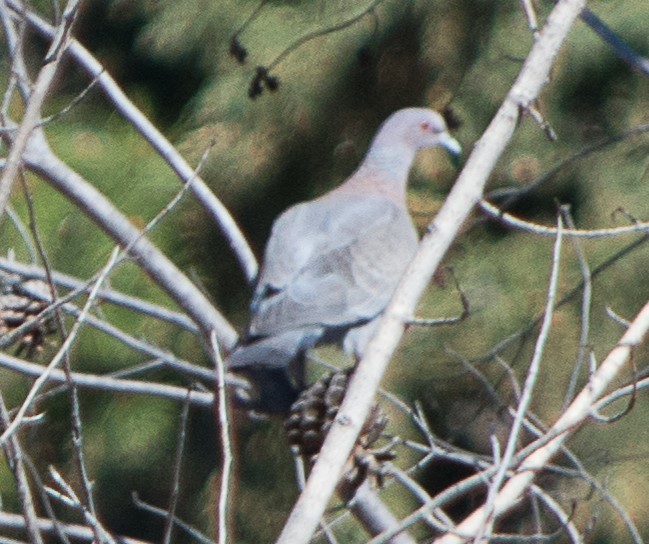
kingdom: Animalia
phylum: Chordata
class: Aves
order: Columbiformes
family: Columbidae
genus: Patagioenas
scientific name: Patagioenas picazuro
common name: Picazuro pigeon
